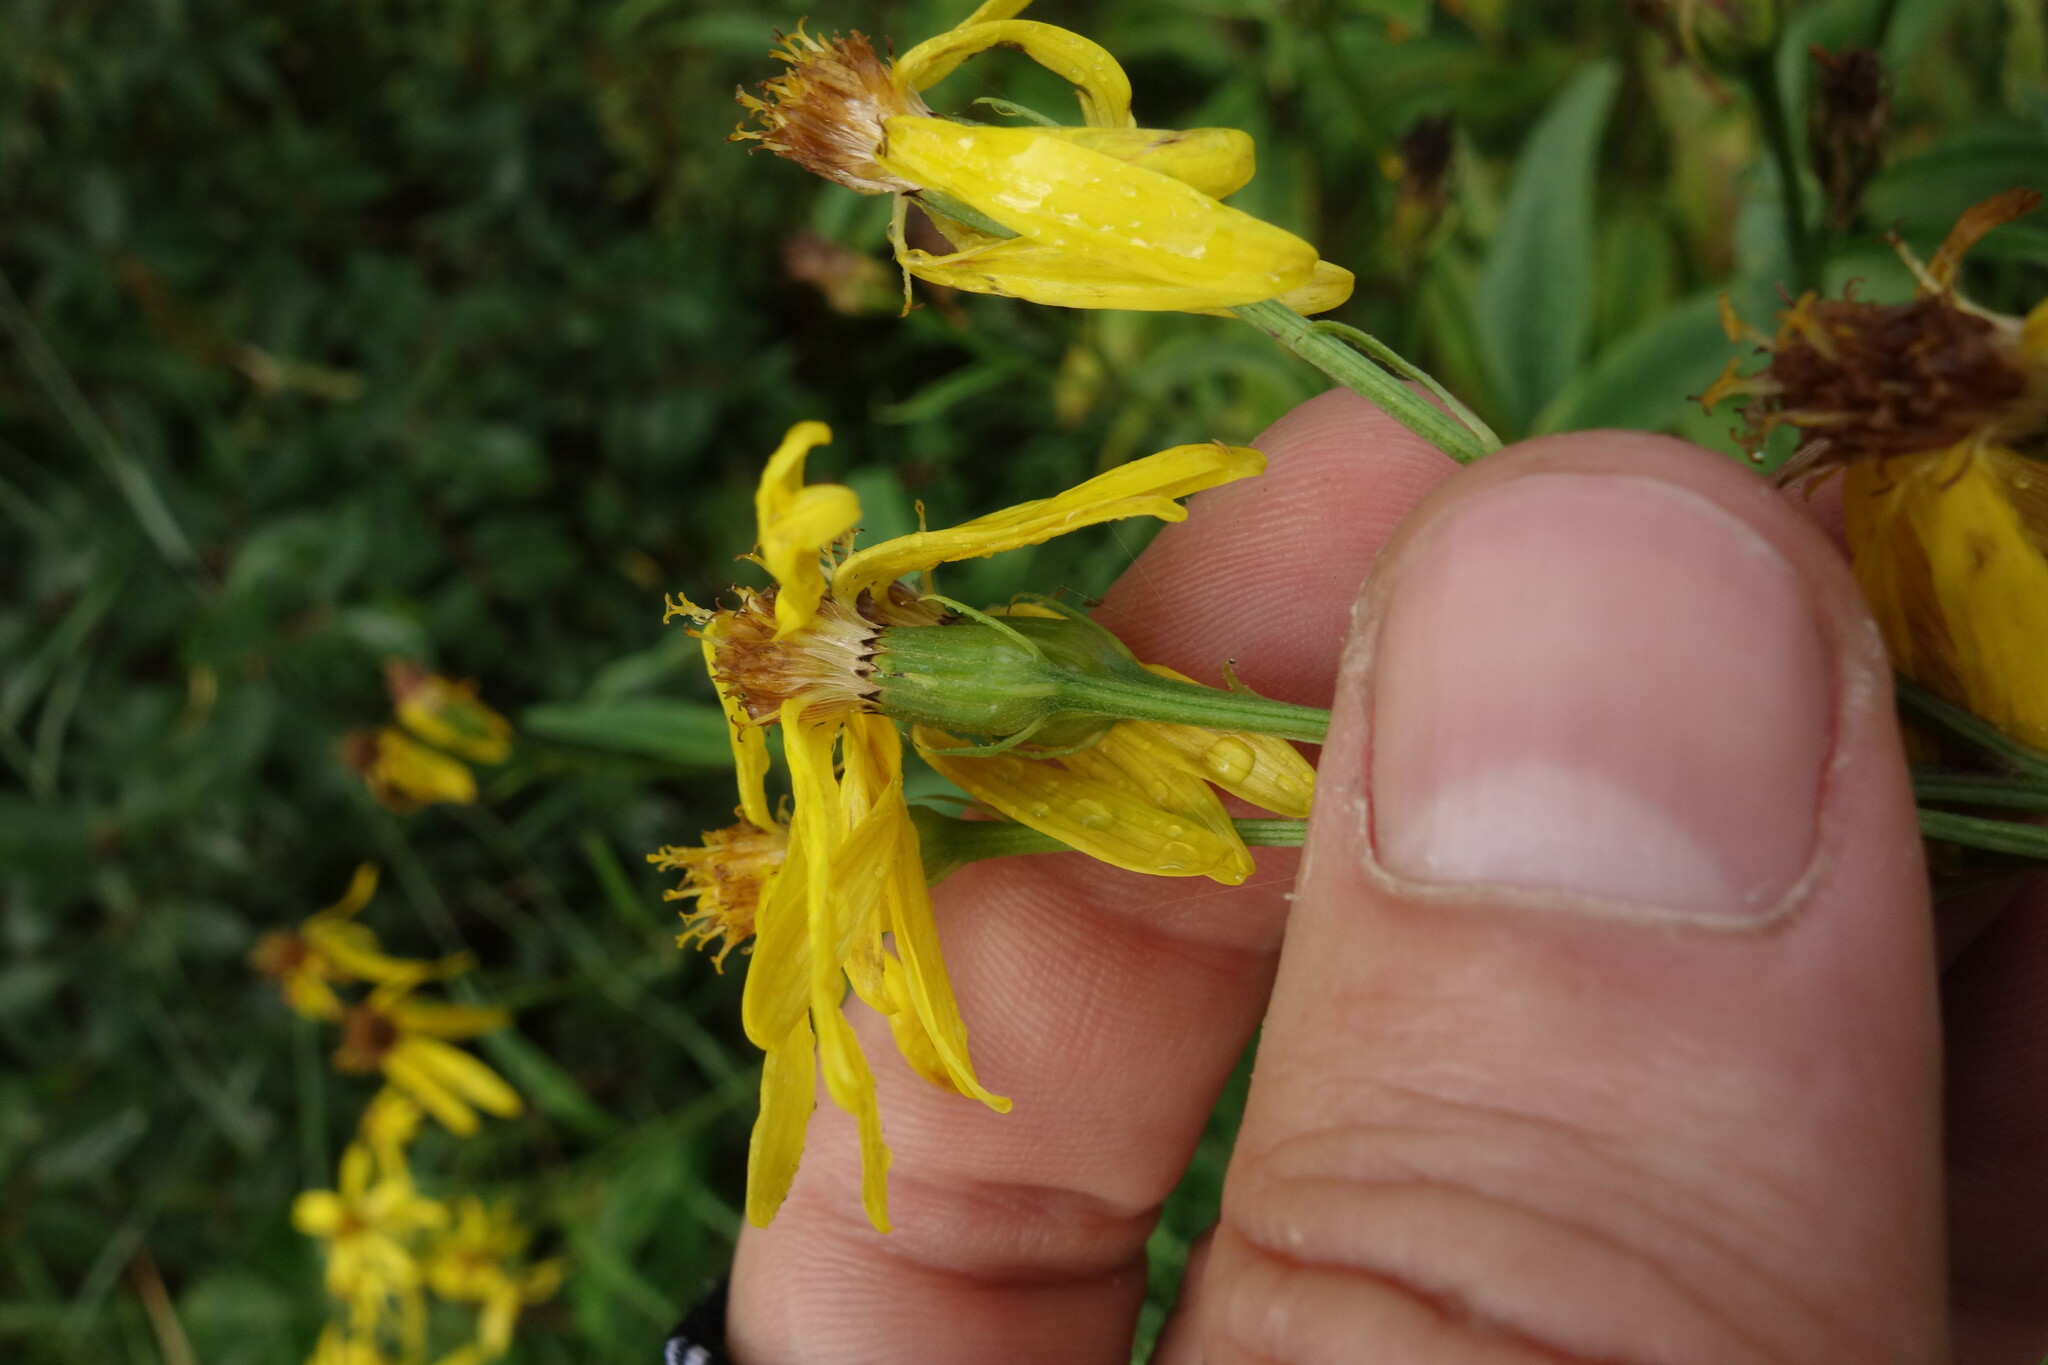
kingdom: Plantae
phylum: Tracheophyta
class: Magnoliopsida
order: Asterales
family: Asteraceae
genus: Senecio
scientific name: Senecio nemorensis
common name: Alpine ragwort
